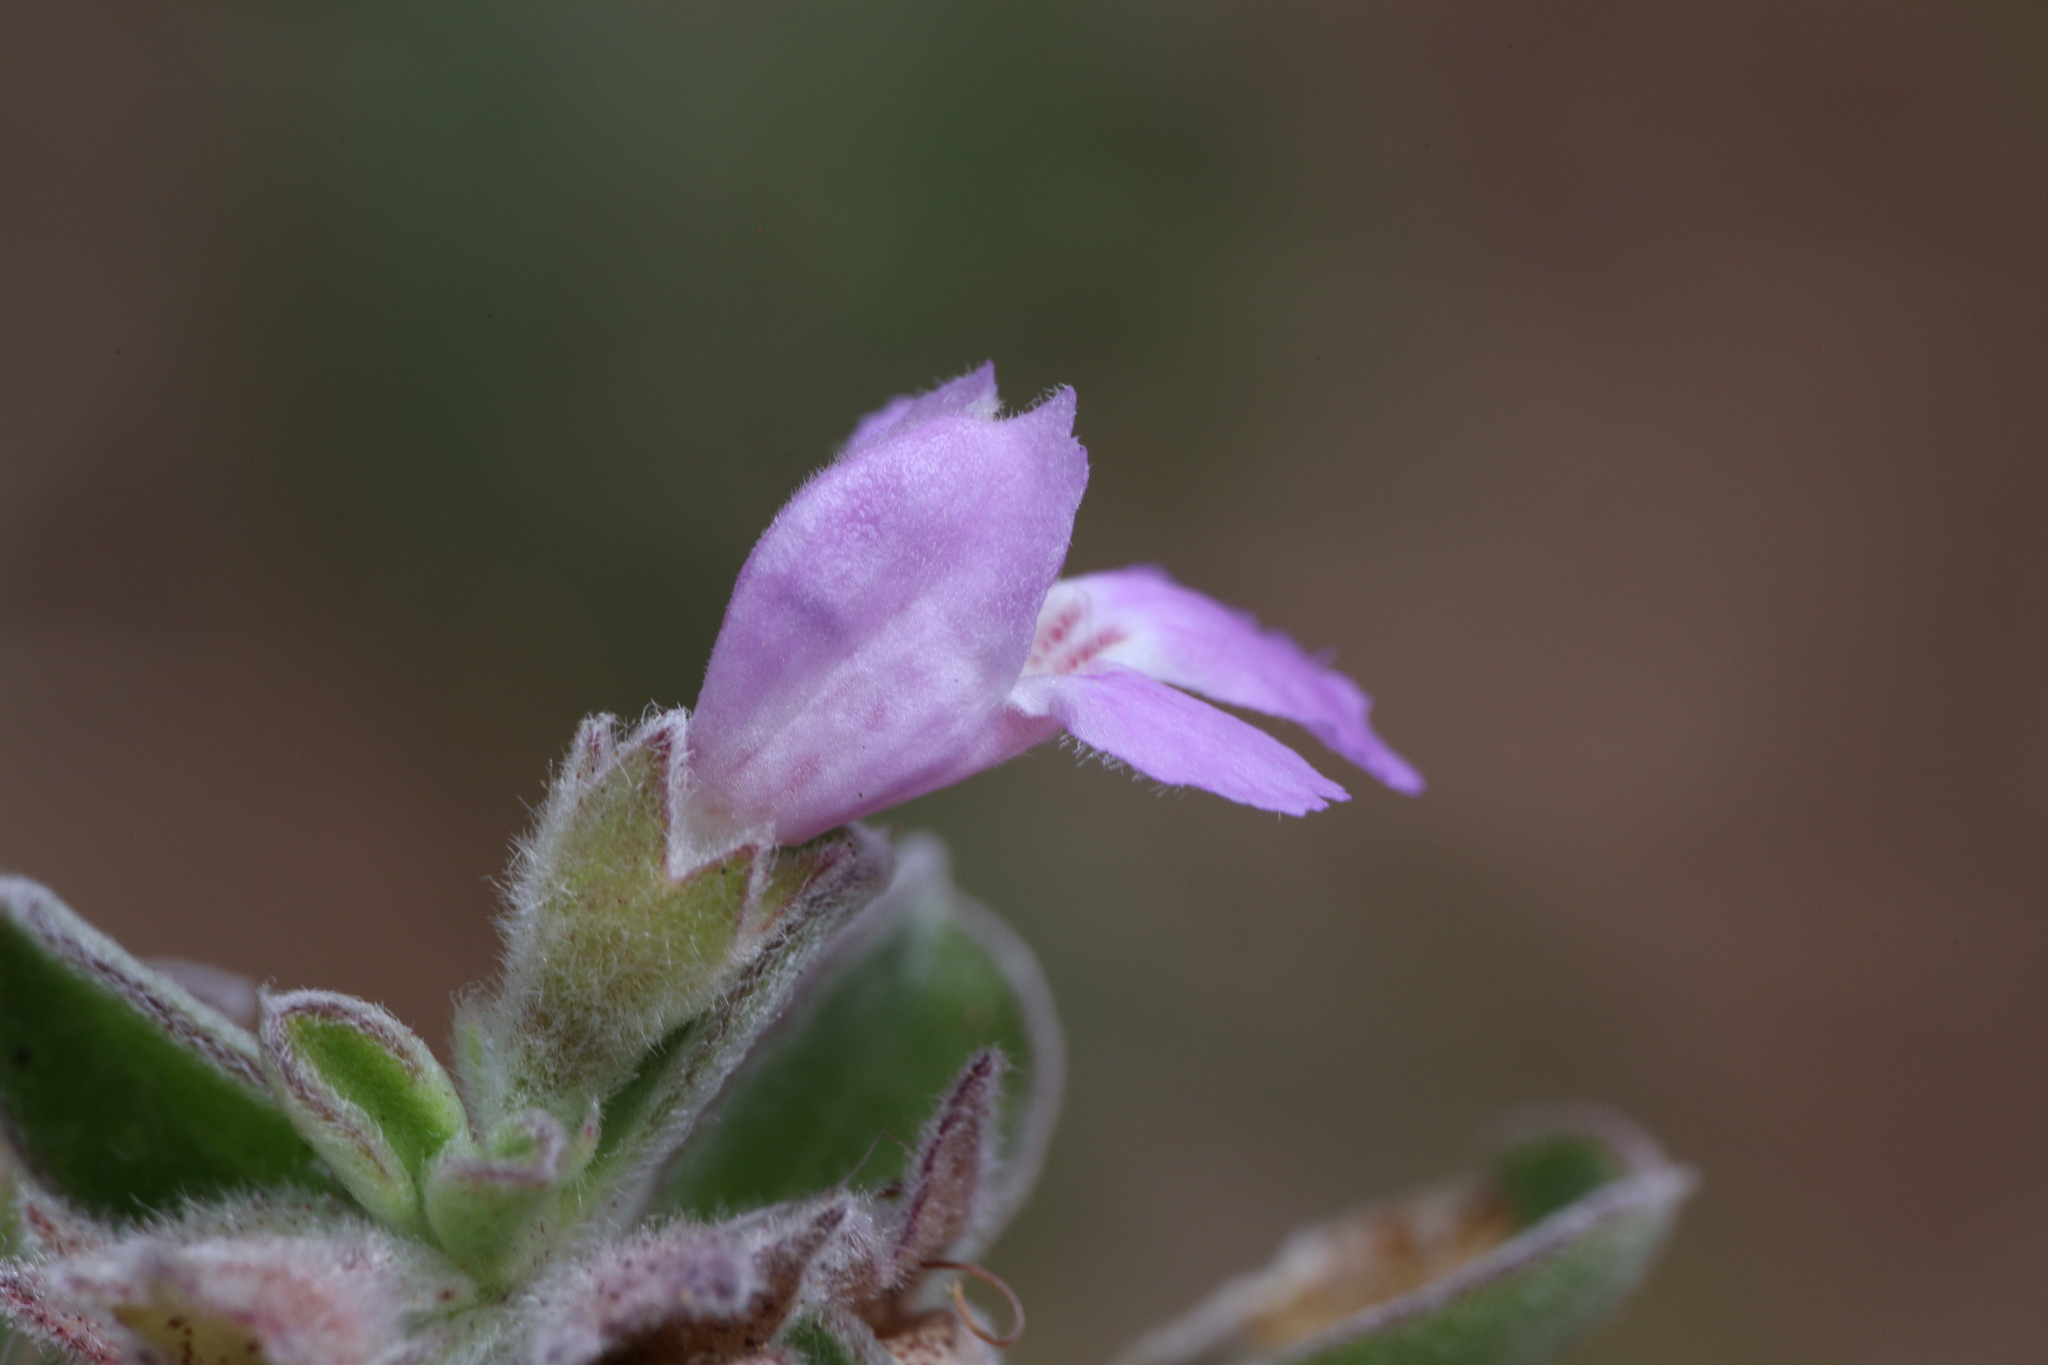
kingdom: Plantae
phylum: Tracheophyta
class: Magnoliopsida
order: Lamiales
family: Lamiaceae
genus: Hemigenia
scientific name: Hemigenia incana
